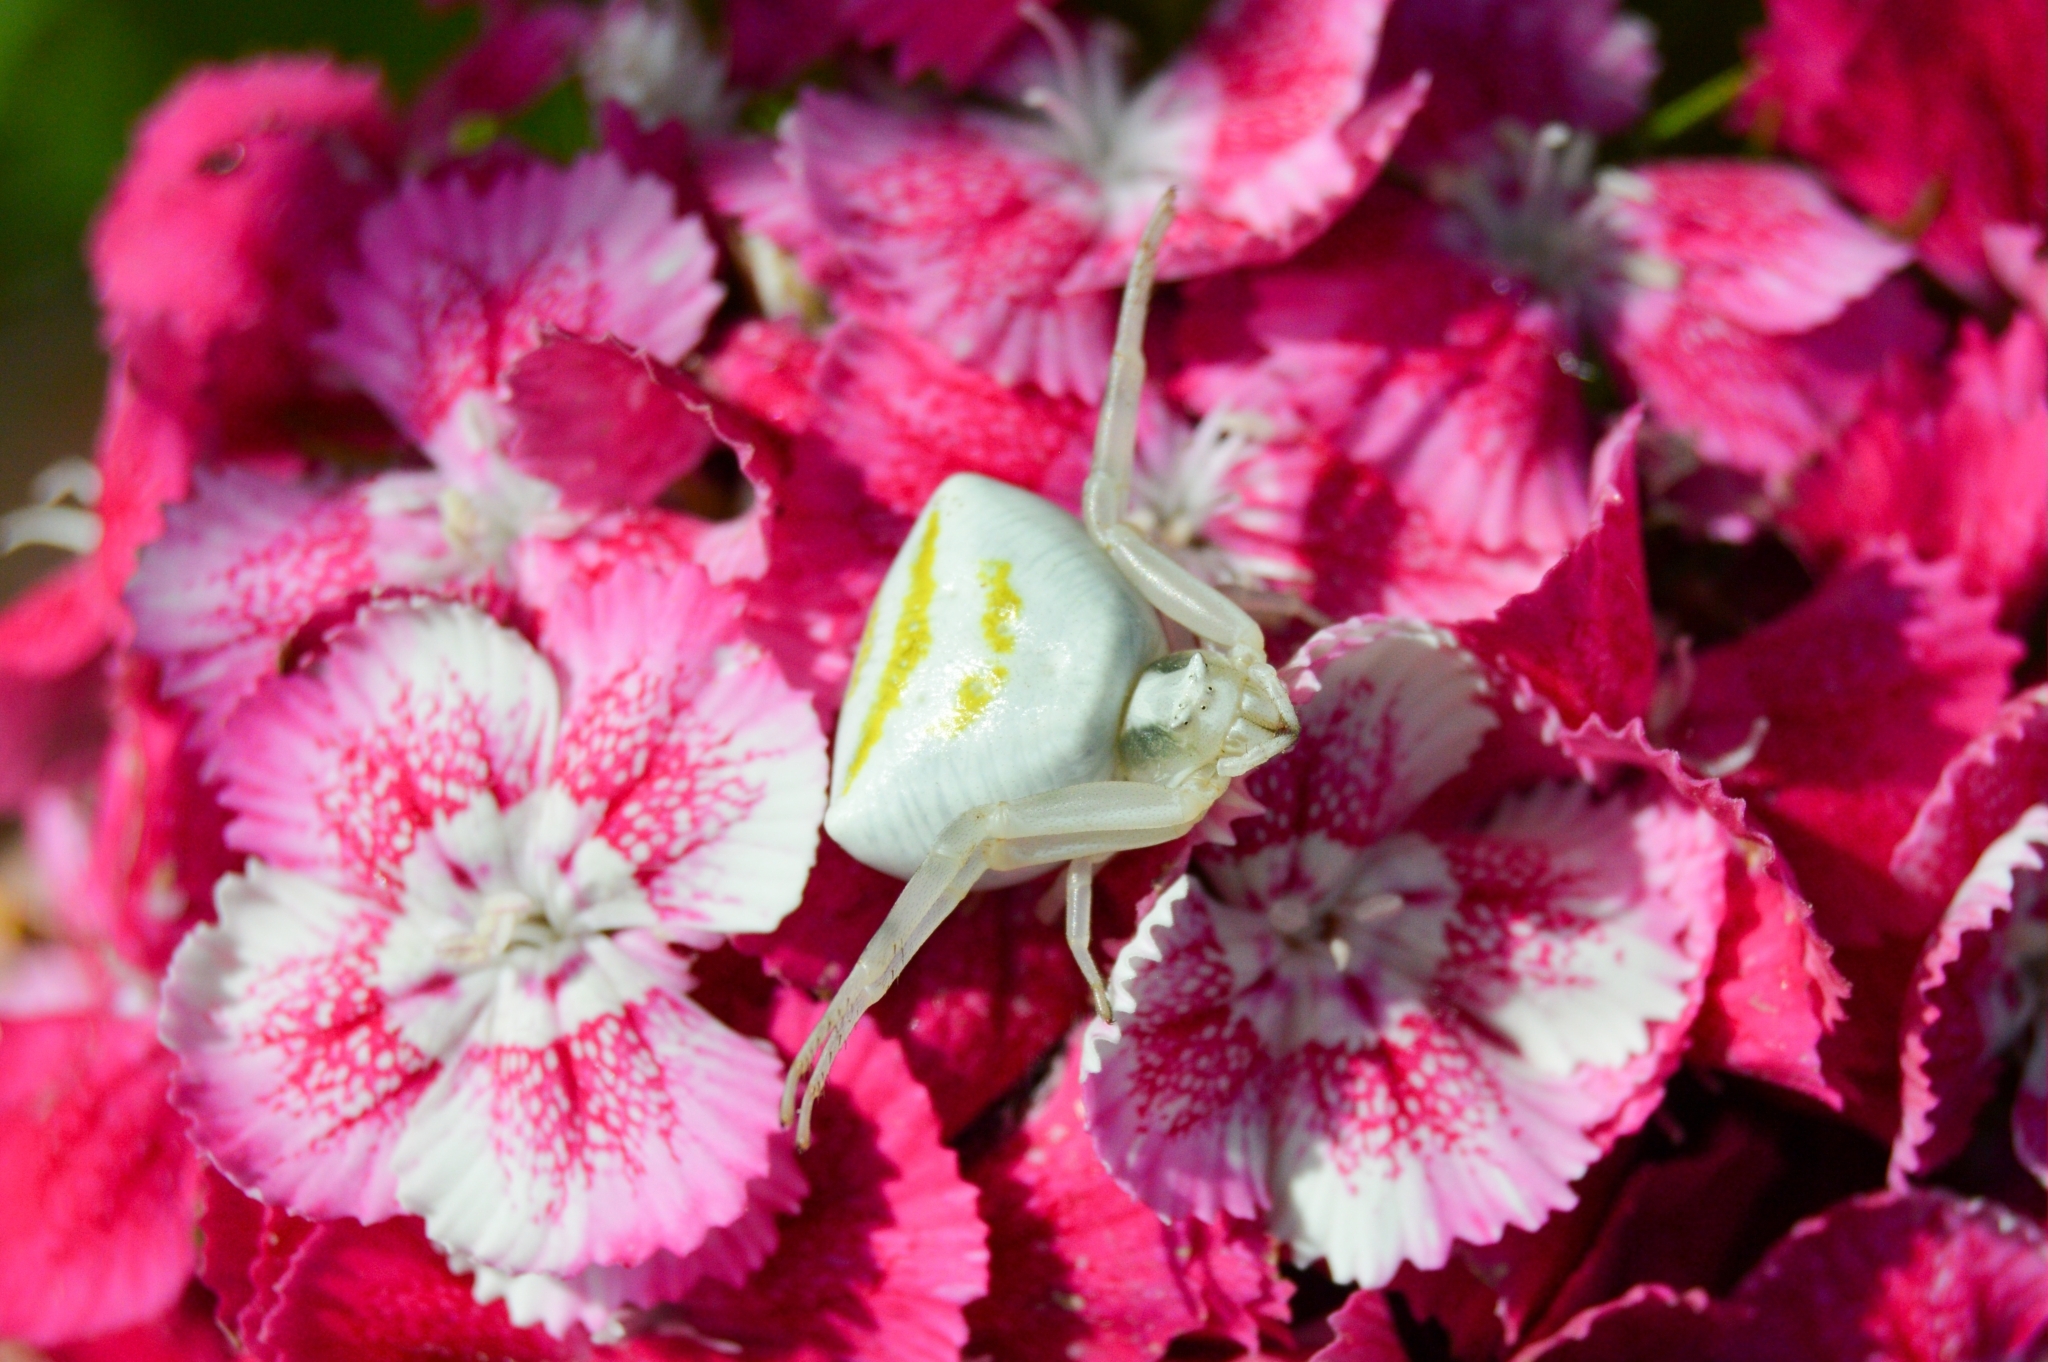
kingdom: Animalia
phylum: Arthropoda
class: Arachnida
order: Araneae
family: Thomisidae
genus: Thomisus
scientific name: Thomisus onustus
